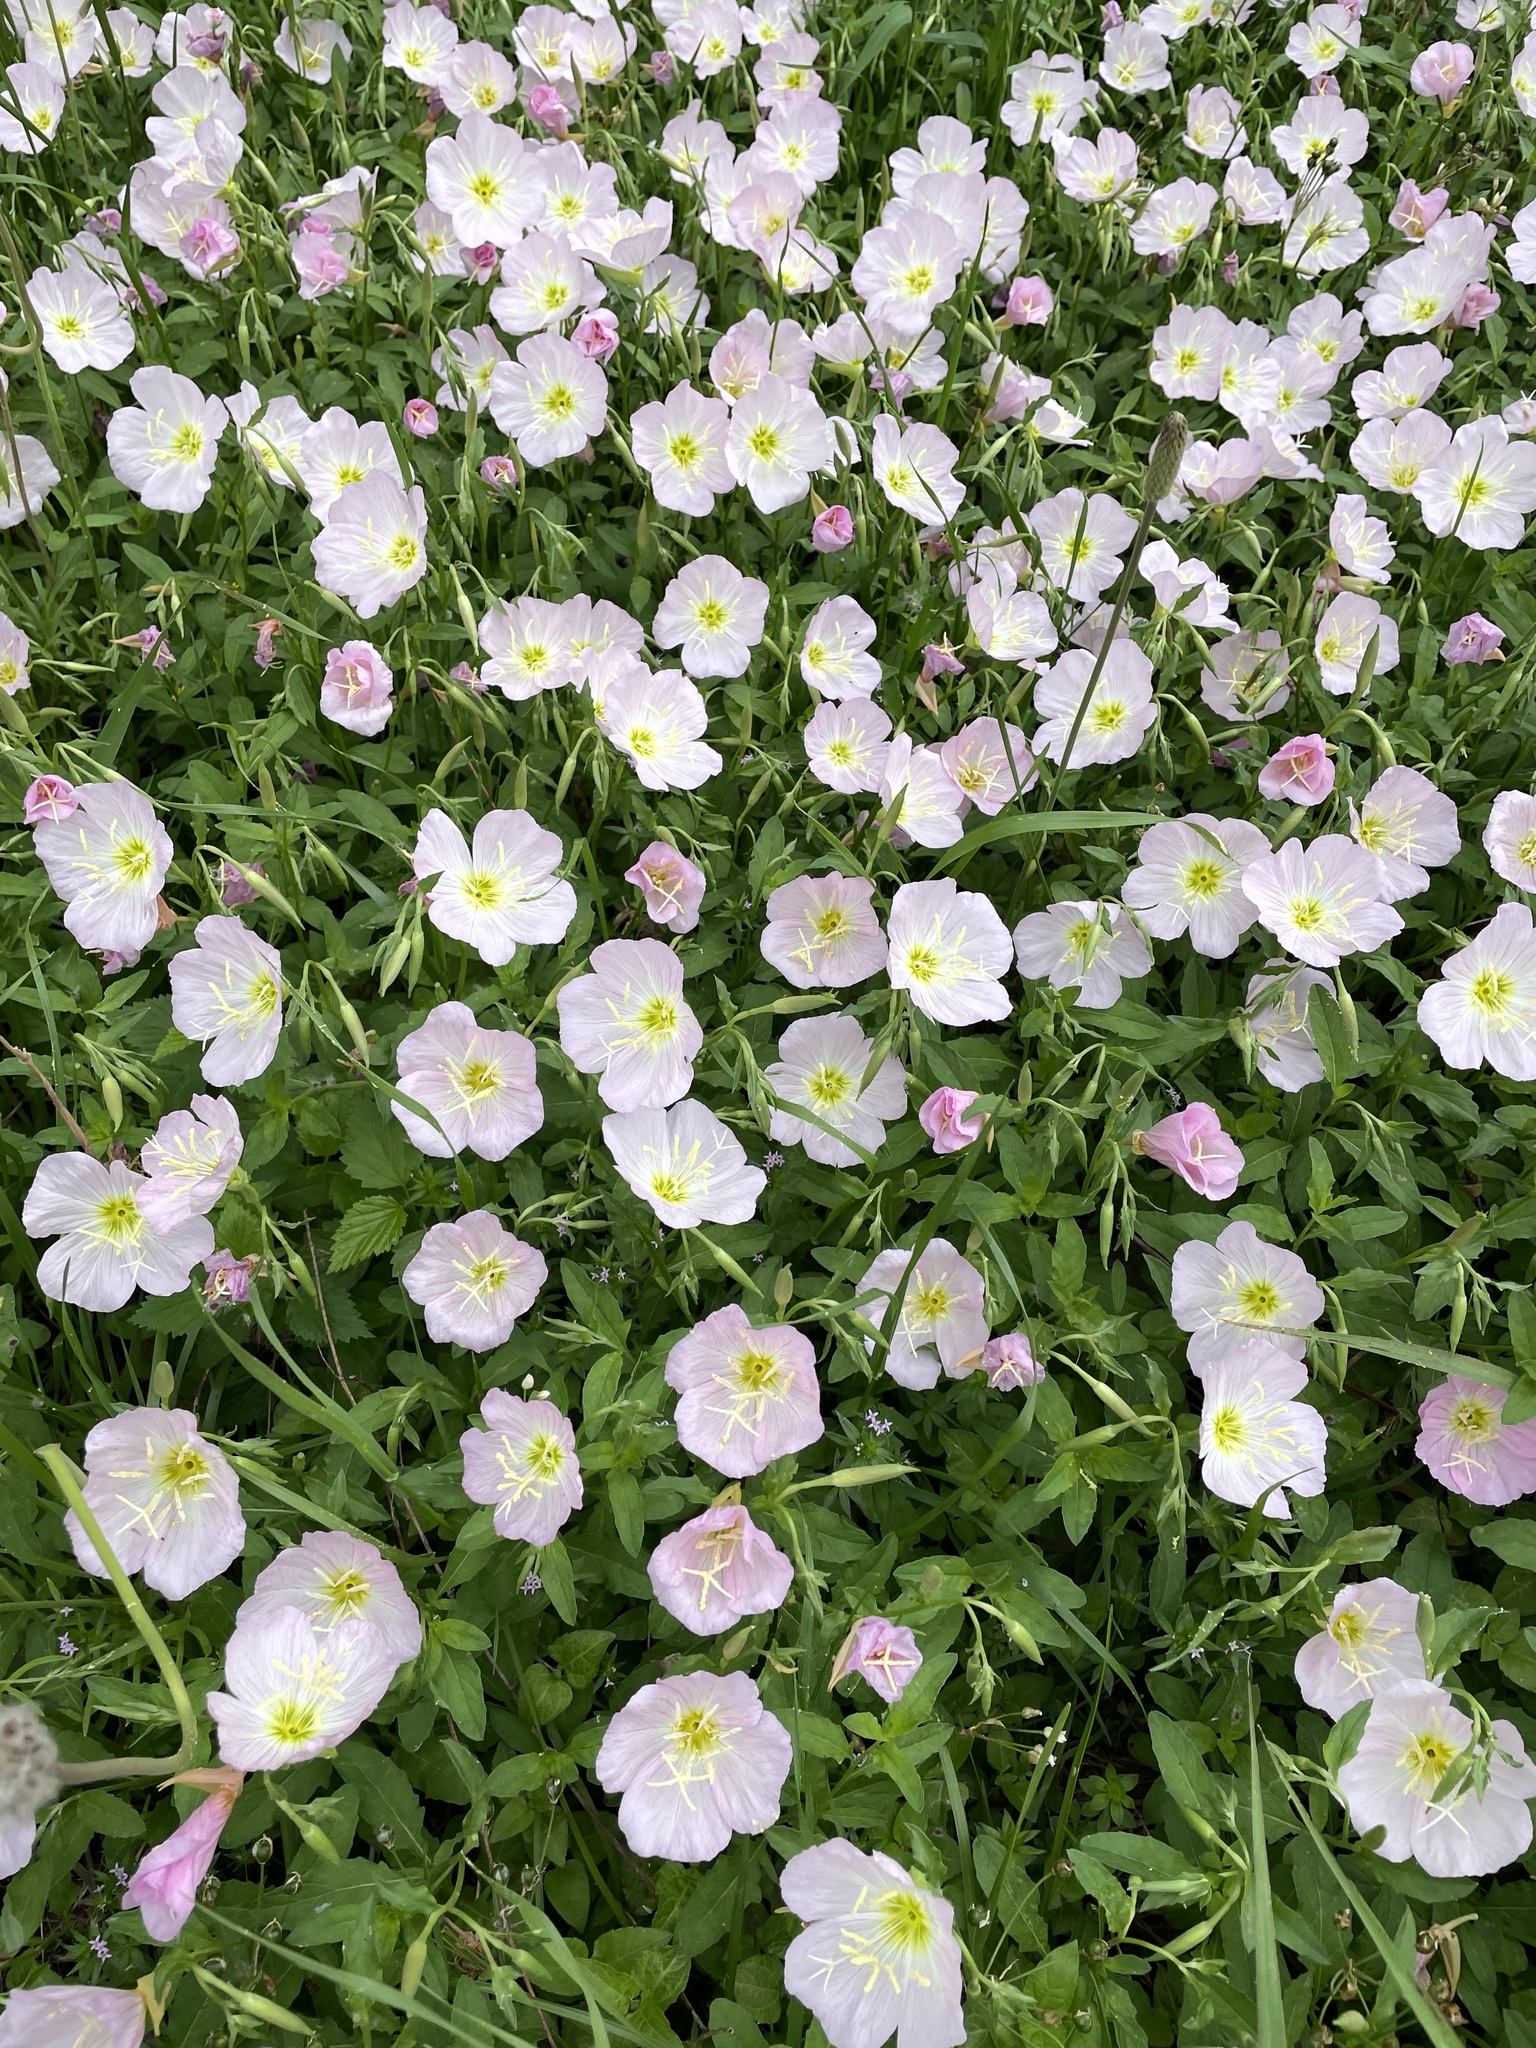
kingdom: Plantae
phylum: Tracheophyta
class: Magnoliopsida
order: Myrtales
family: Onagraceae
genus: Oenothera
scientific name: Oenothera speciosa
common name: White evening-primrose
